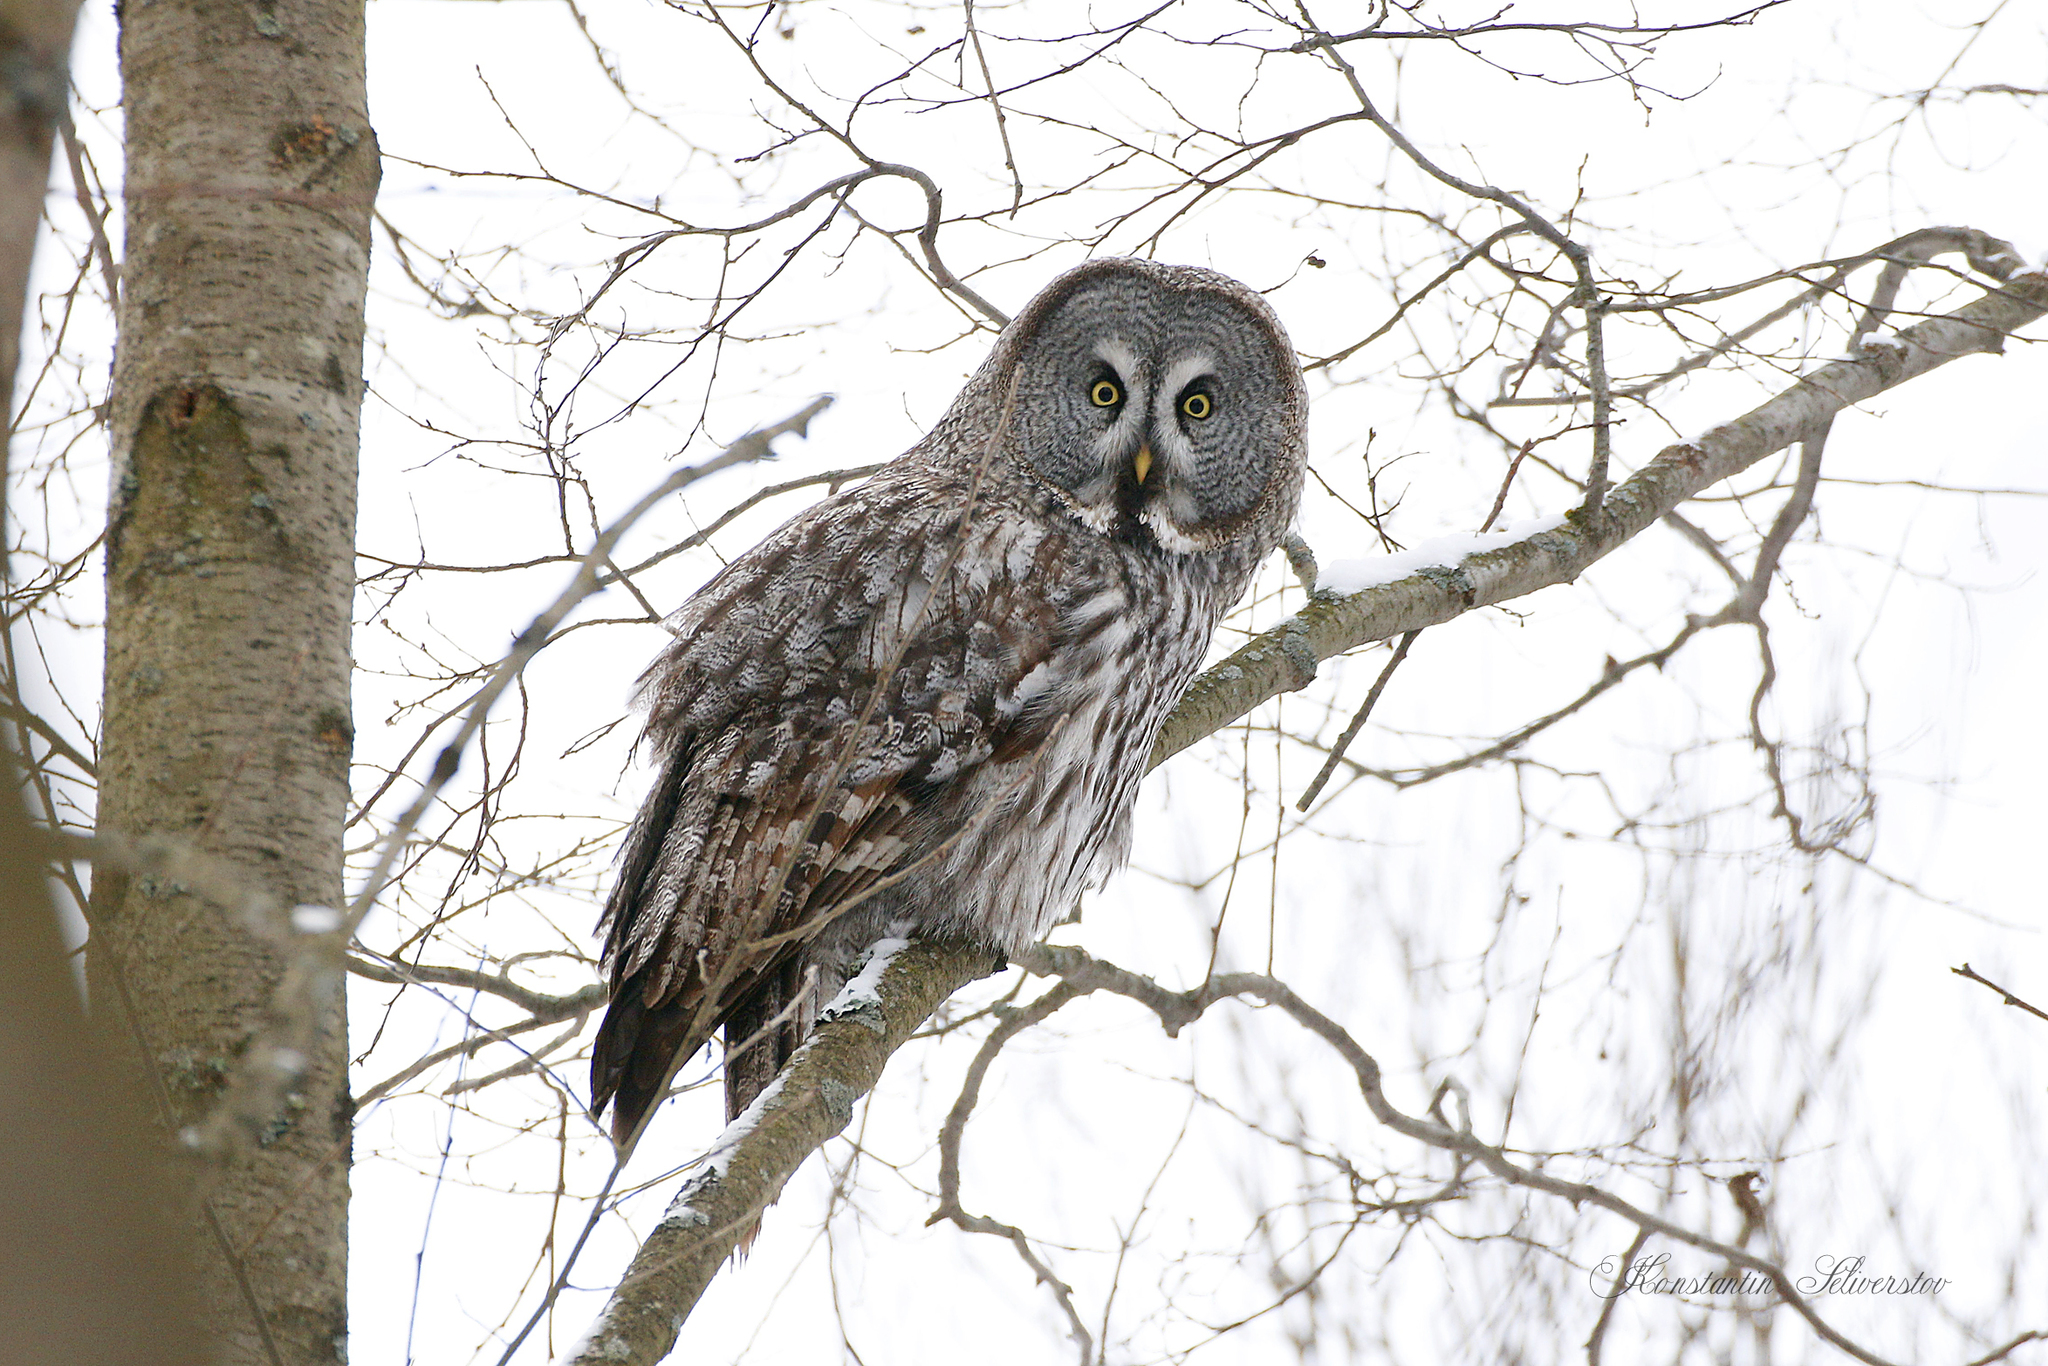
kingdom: Animalia
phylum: Chordata
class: Aves
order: Strigiformes
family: Strigidae
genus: Strix
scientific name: Strix nebulosa
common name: Great grey owl
